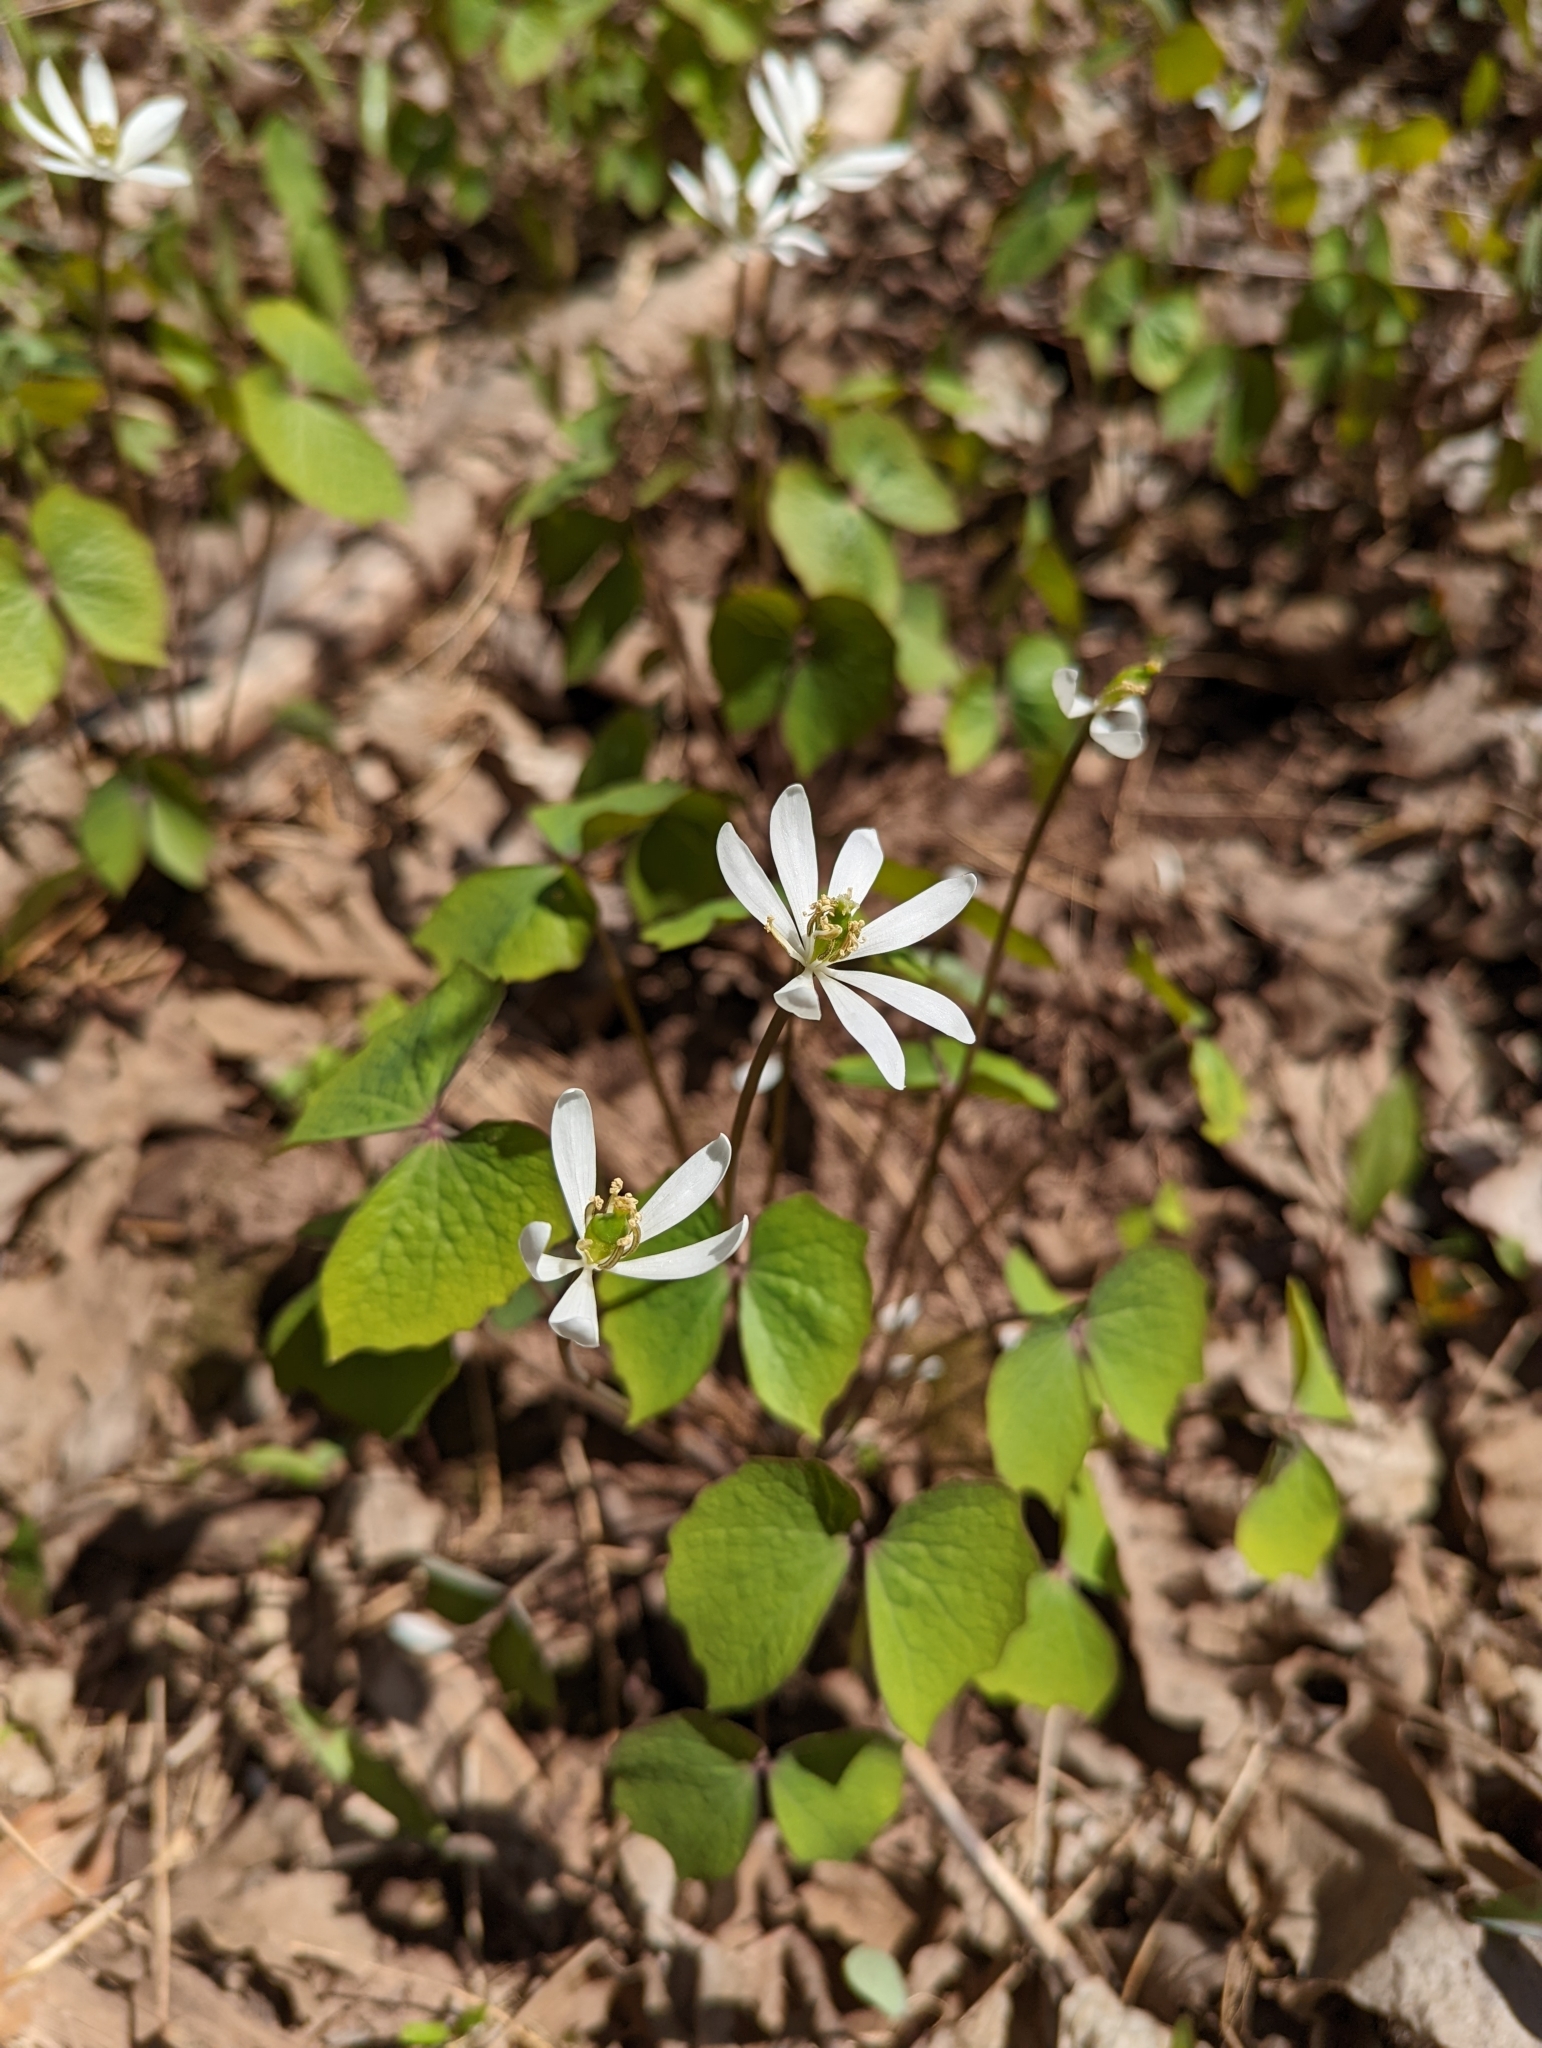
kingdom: Plantae
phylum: Tracheophyta
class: Magnoliopsida
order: Ranunculales
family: Berberidaceae
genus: Jeffersonia
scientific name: Jeffersonia diphylla
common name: Rheumatism-root
